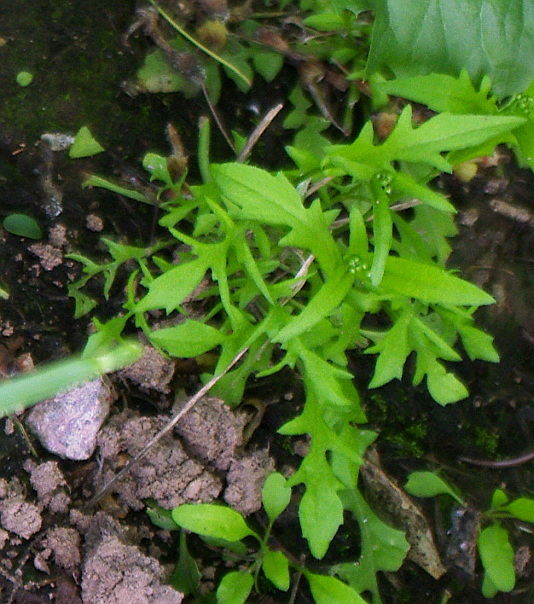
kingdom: Plantae
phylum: Tracheophyta
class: Magnoliopsida
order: Brassicales
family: Brassicaceae
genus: Capsella
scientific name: Capsella bursa-pastoris
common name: Shepherd's purse
